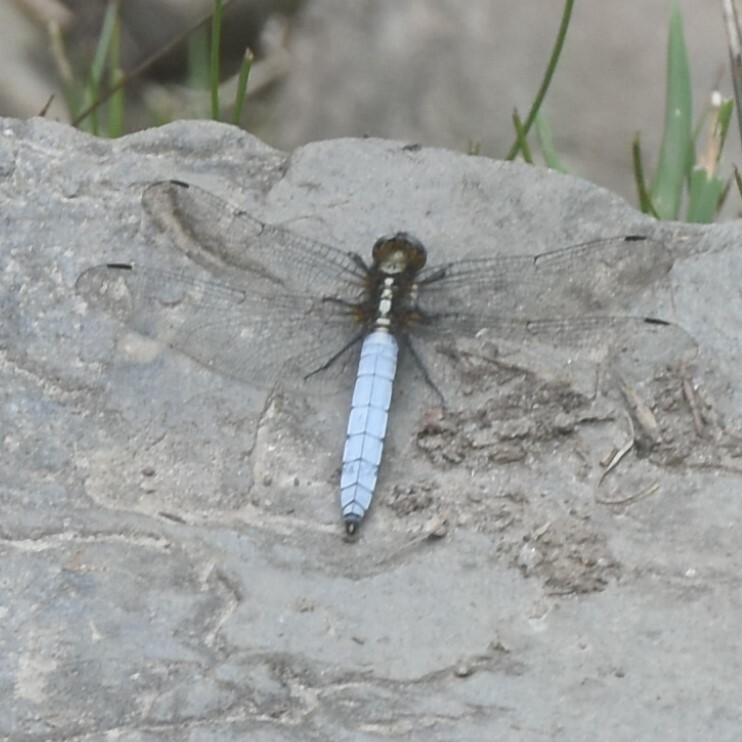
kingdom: Animalia
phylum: Arthropoda
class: Insecta
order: Odonata
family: Libellulidae
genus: Orthetrum
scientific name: Orthetrum internum
